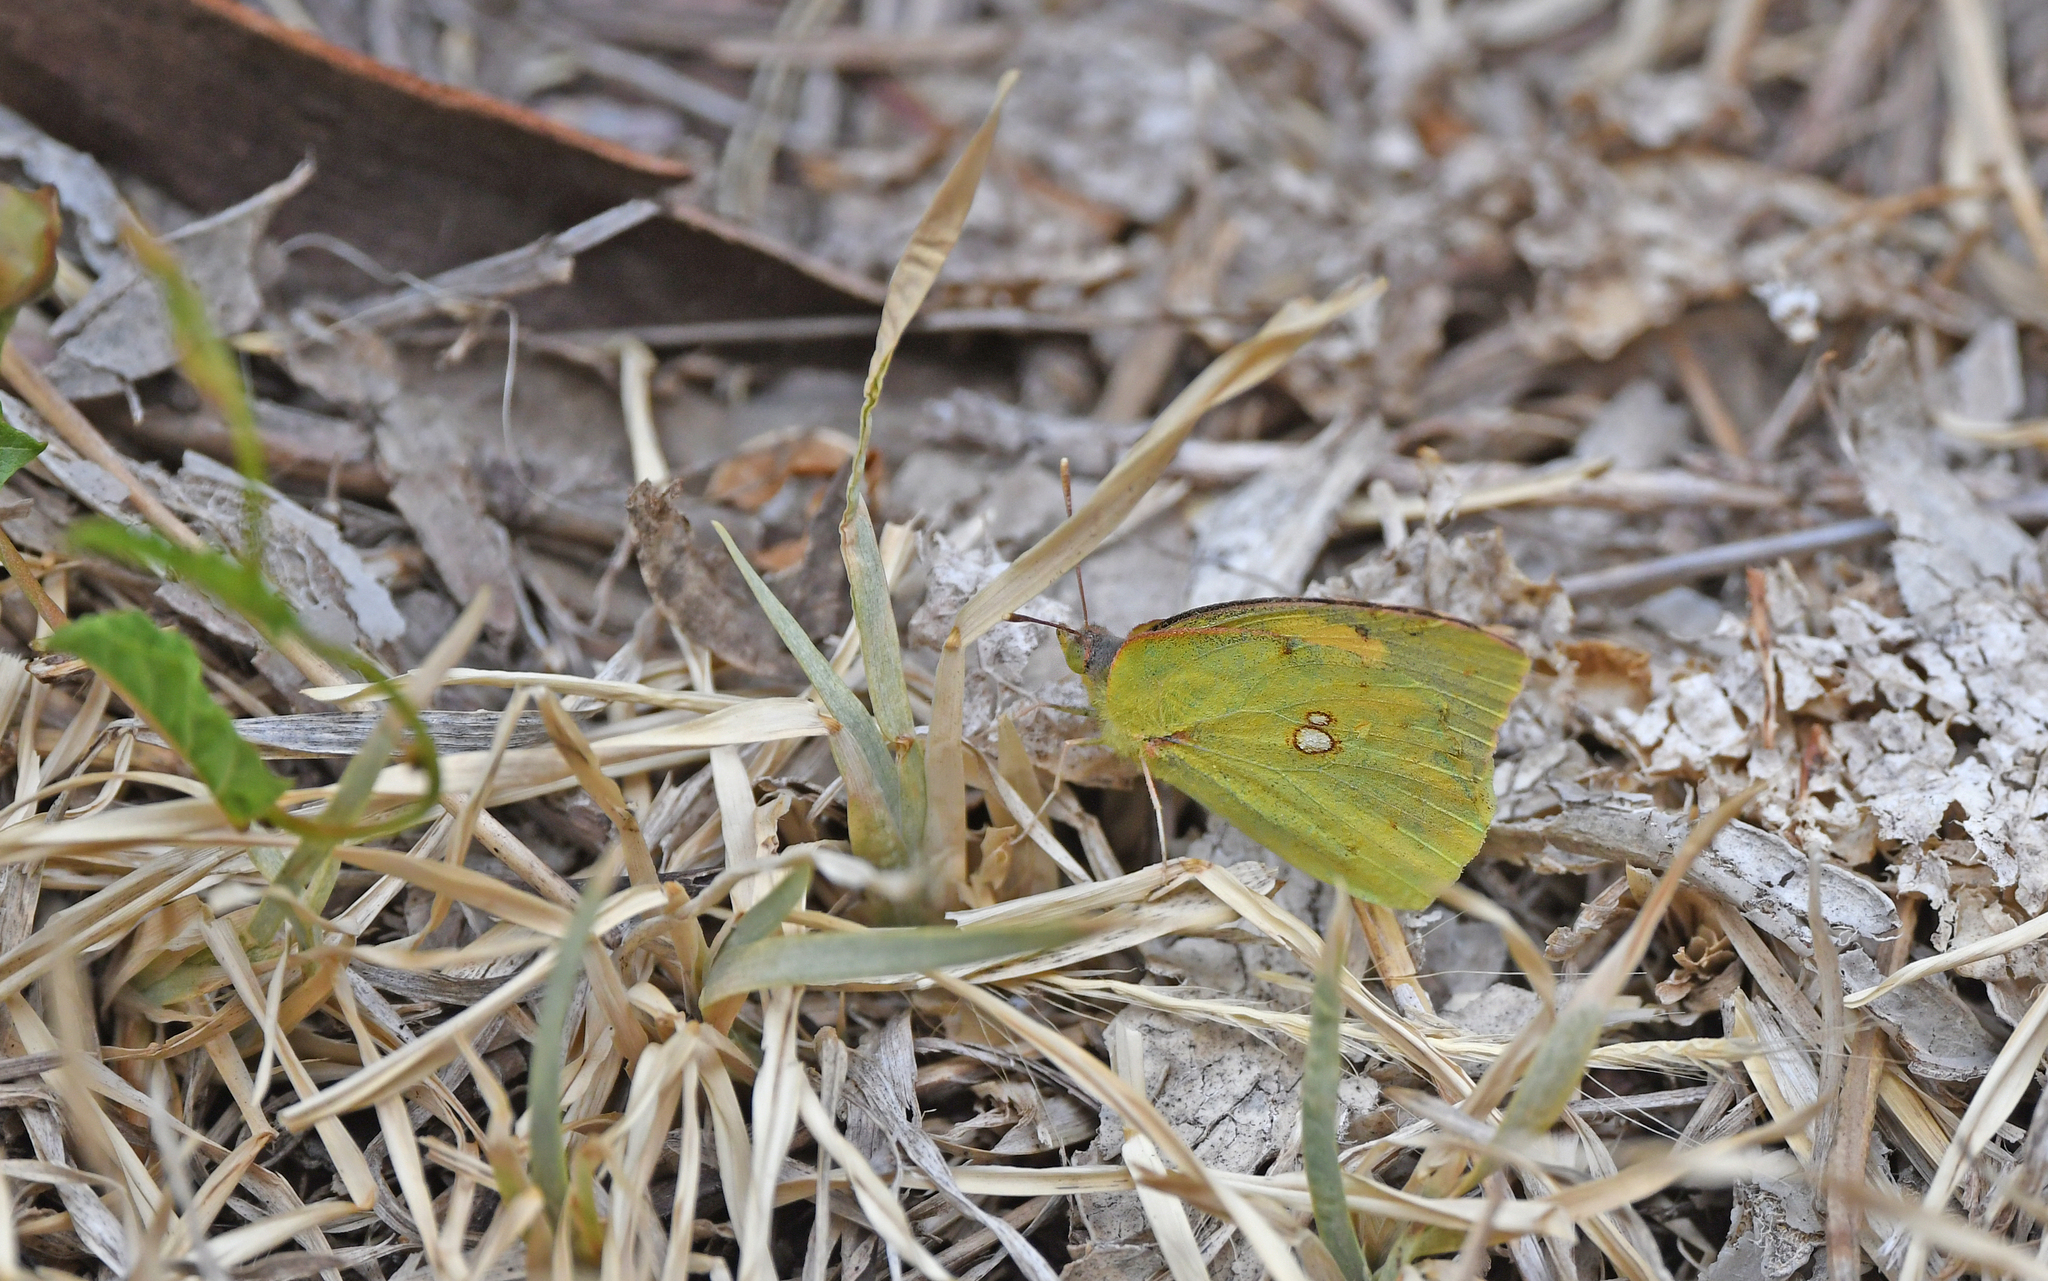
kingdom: Animalia
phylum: Arthropoda
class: Insecta
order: Lepidoptera
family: Pieridae
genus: Zerene
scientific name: Zerene cesonia
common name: Southern dogface
